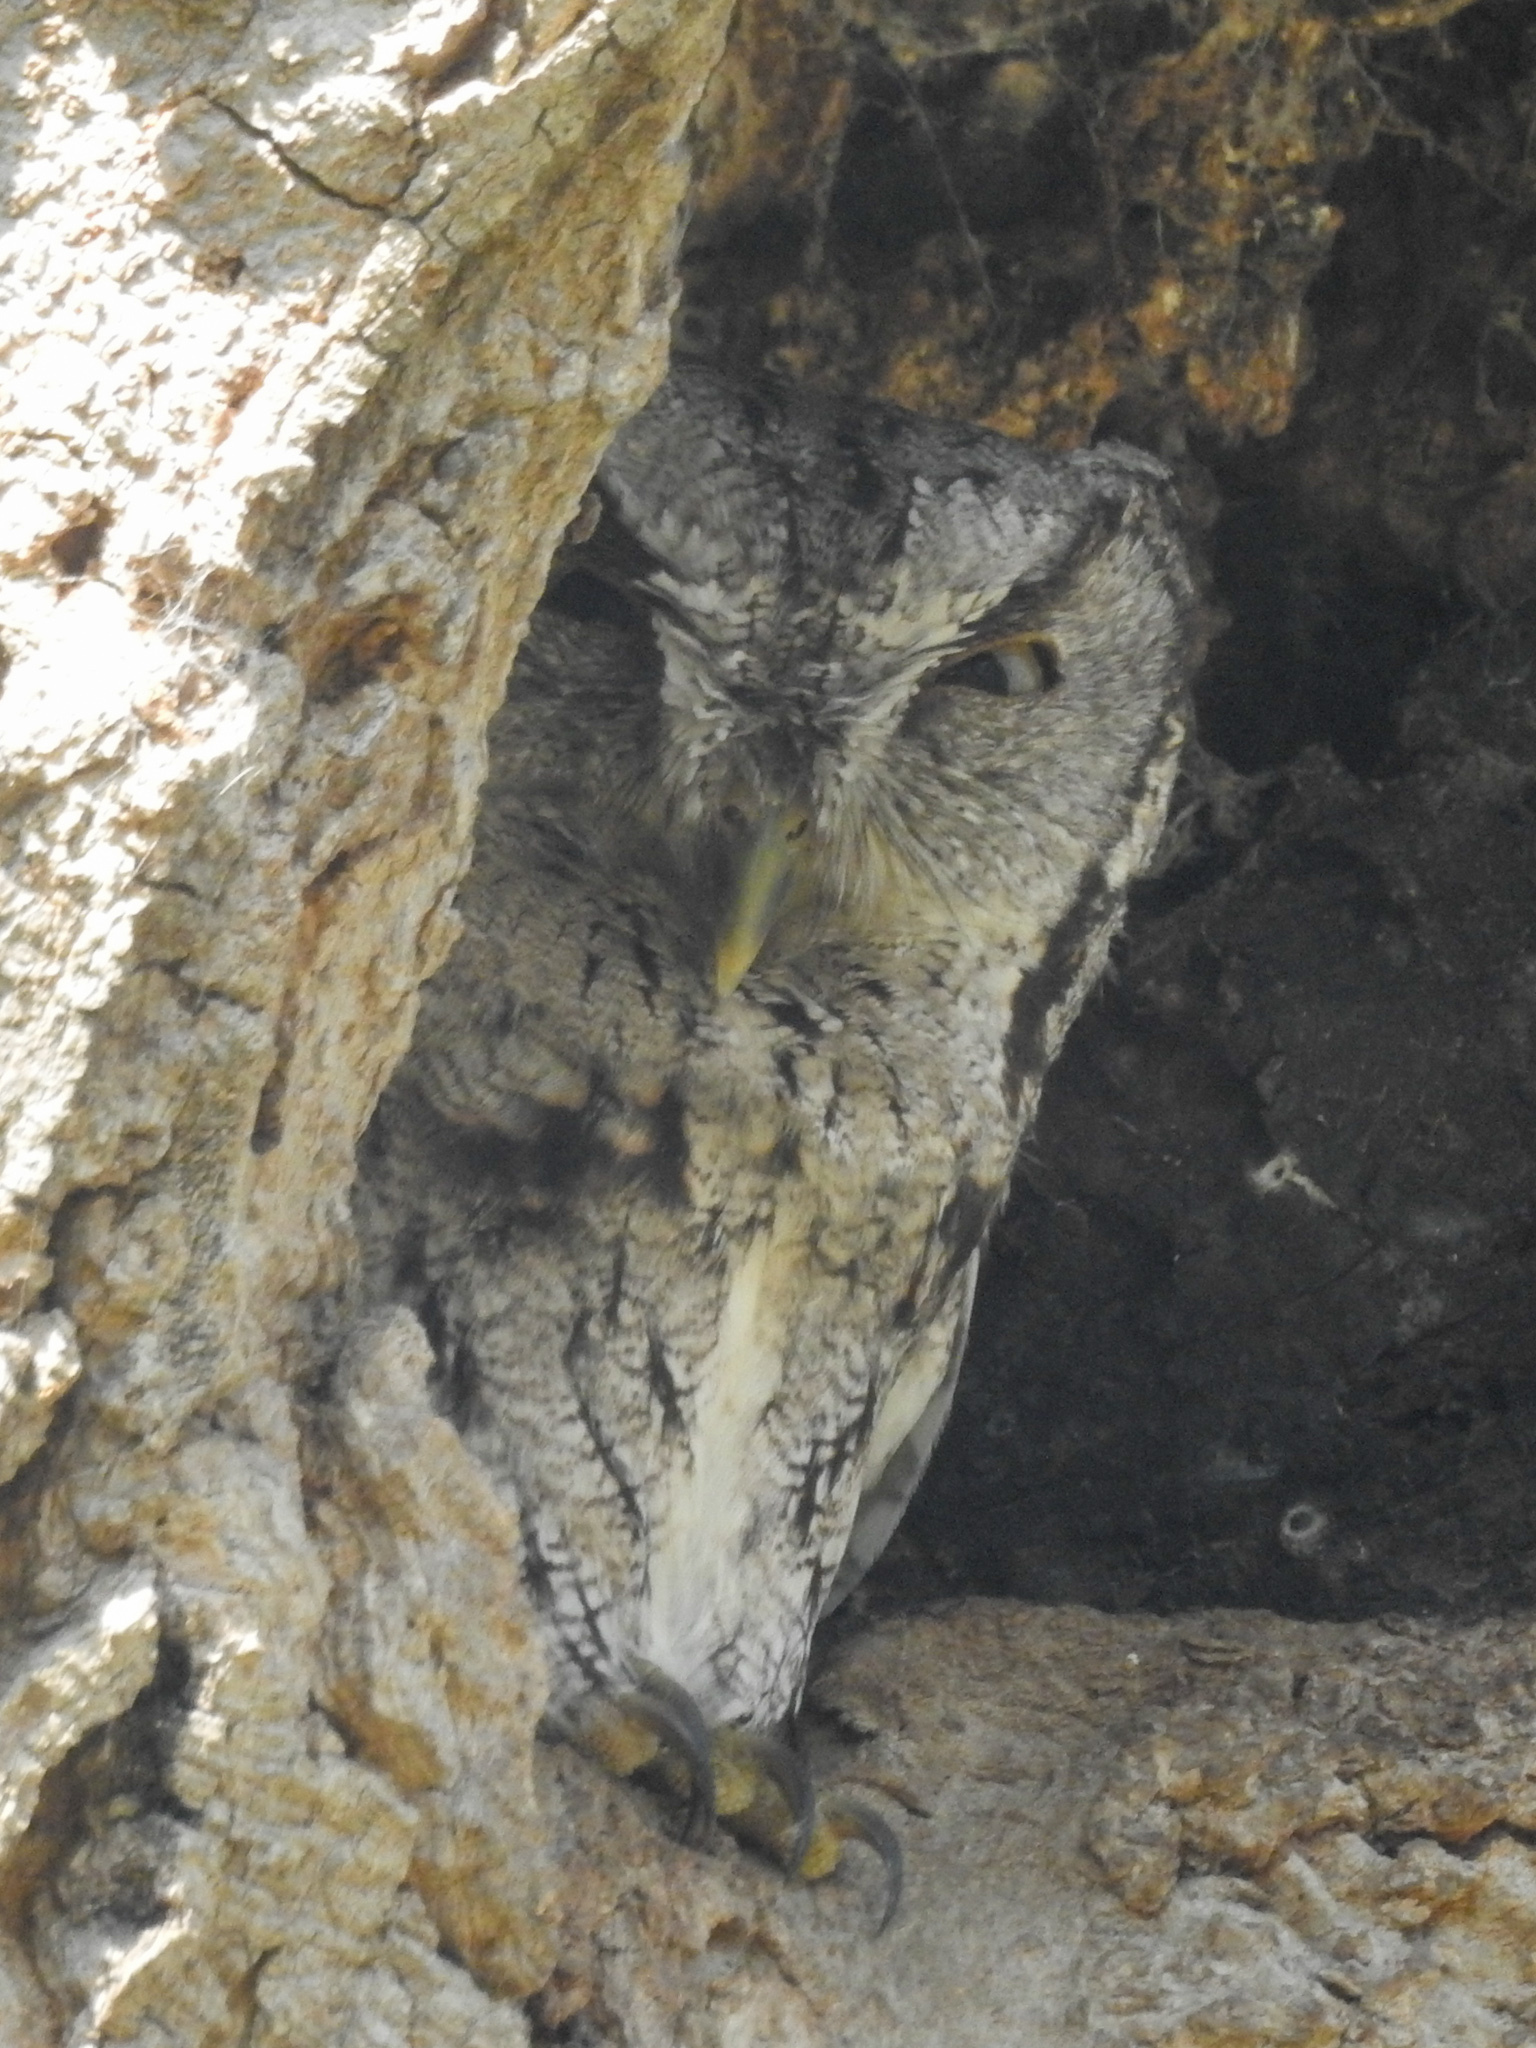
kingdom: Animalia
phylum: Chordata
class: Aves
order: Strigiformes
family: Strigidae
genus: Megascops
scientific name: Megascops asio
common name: Eastern screech-owl
